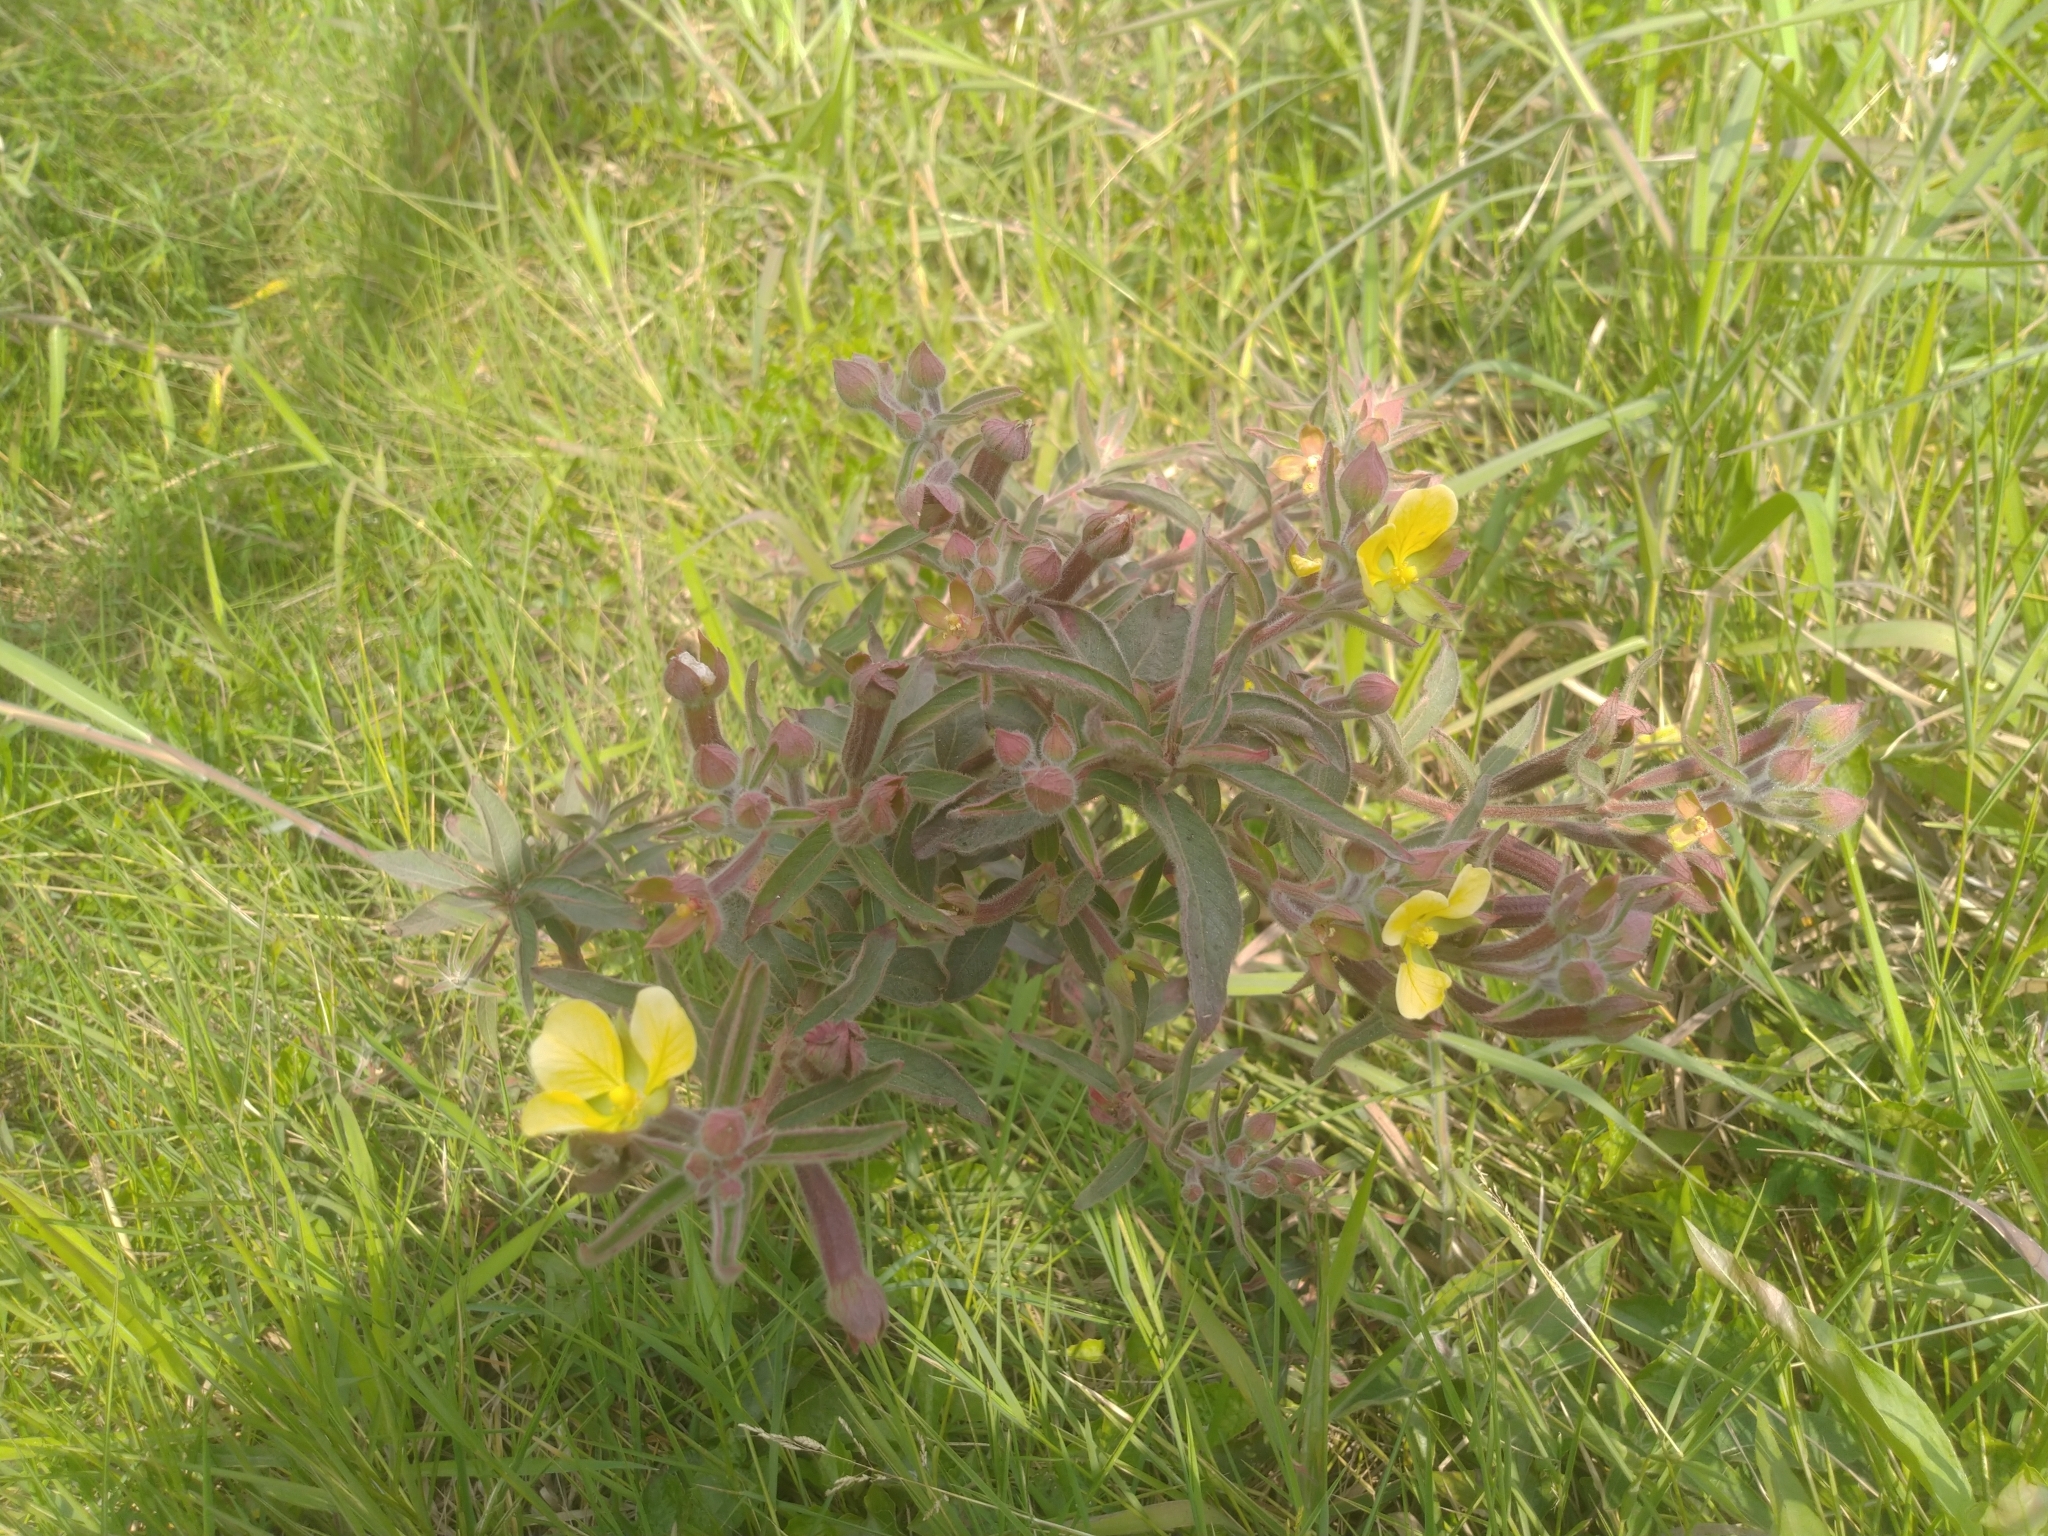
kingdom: Plantae
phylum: Tracheophyta
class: Magnoliopsida
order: Myrtales
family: Onagraceae
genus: Ludwigia
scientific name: Ludwigia octovalvis
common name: Water-primrose
